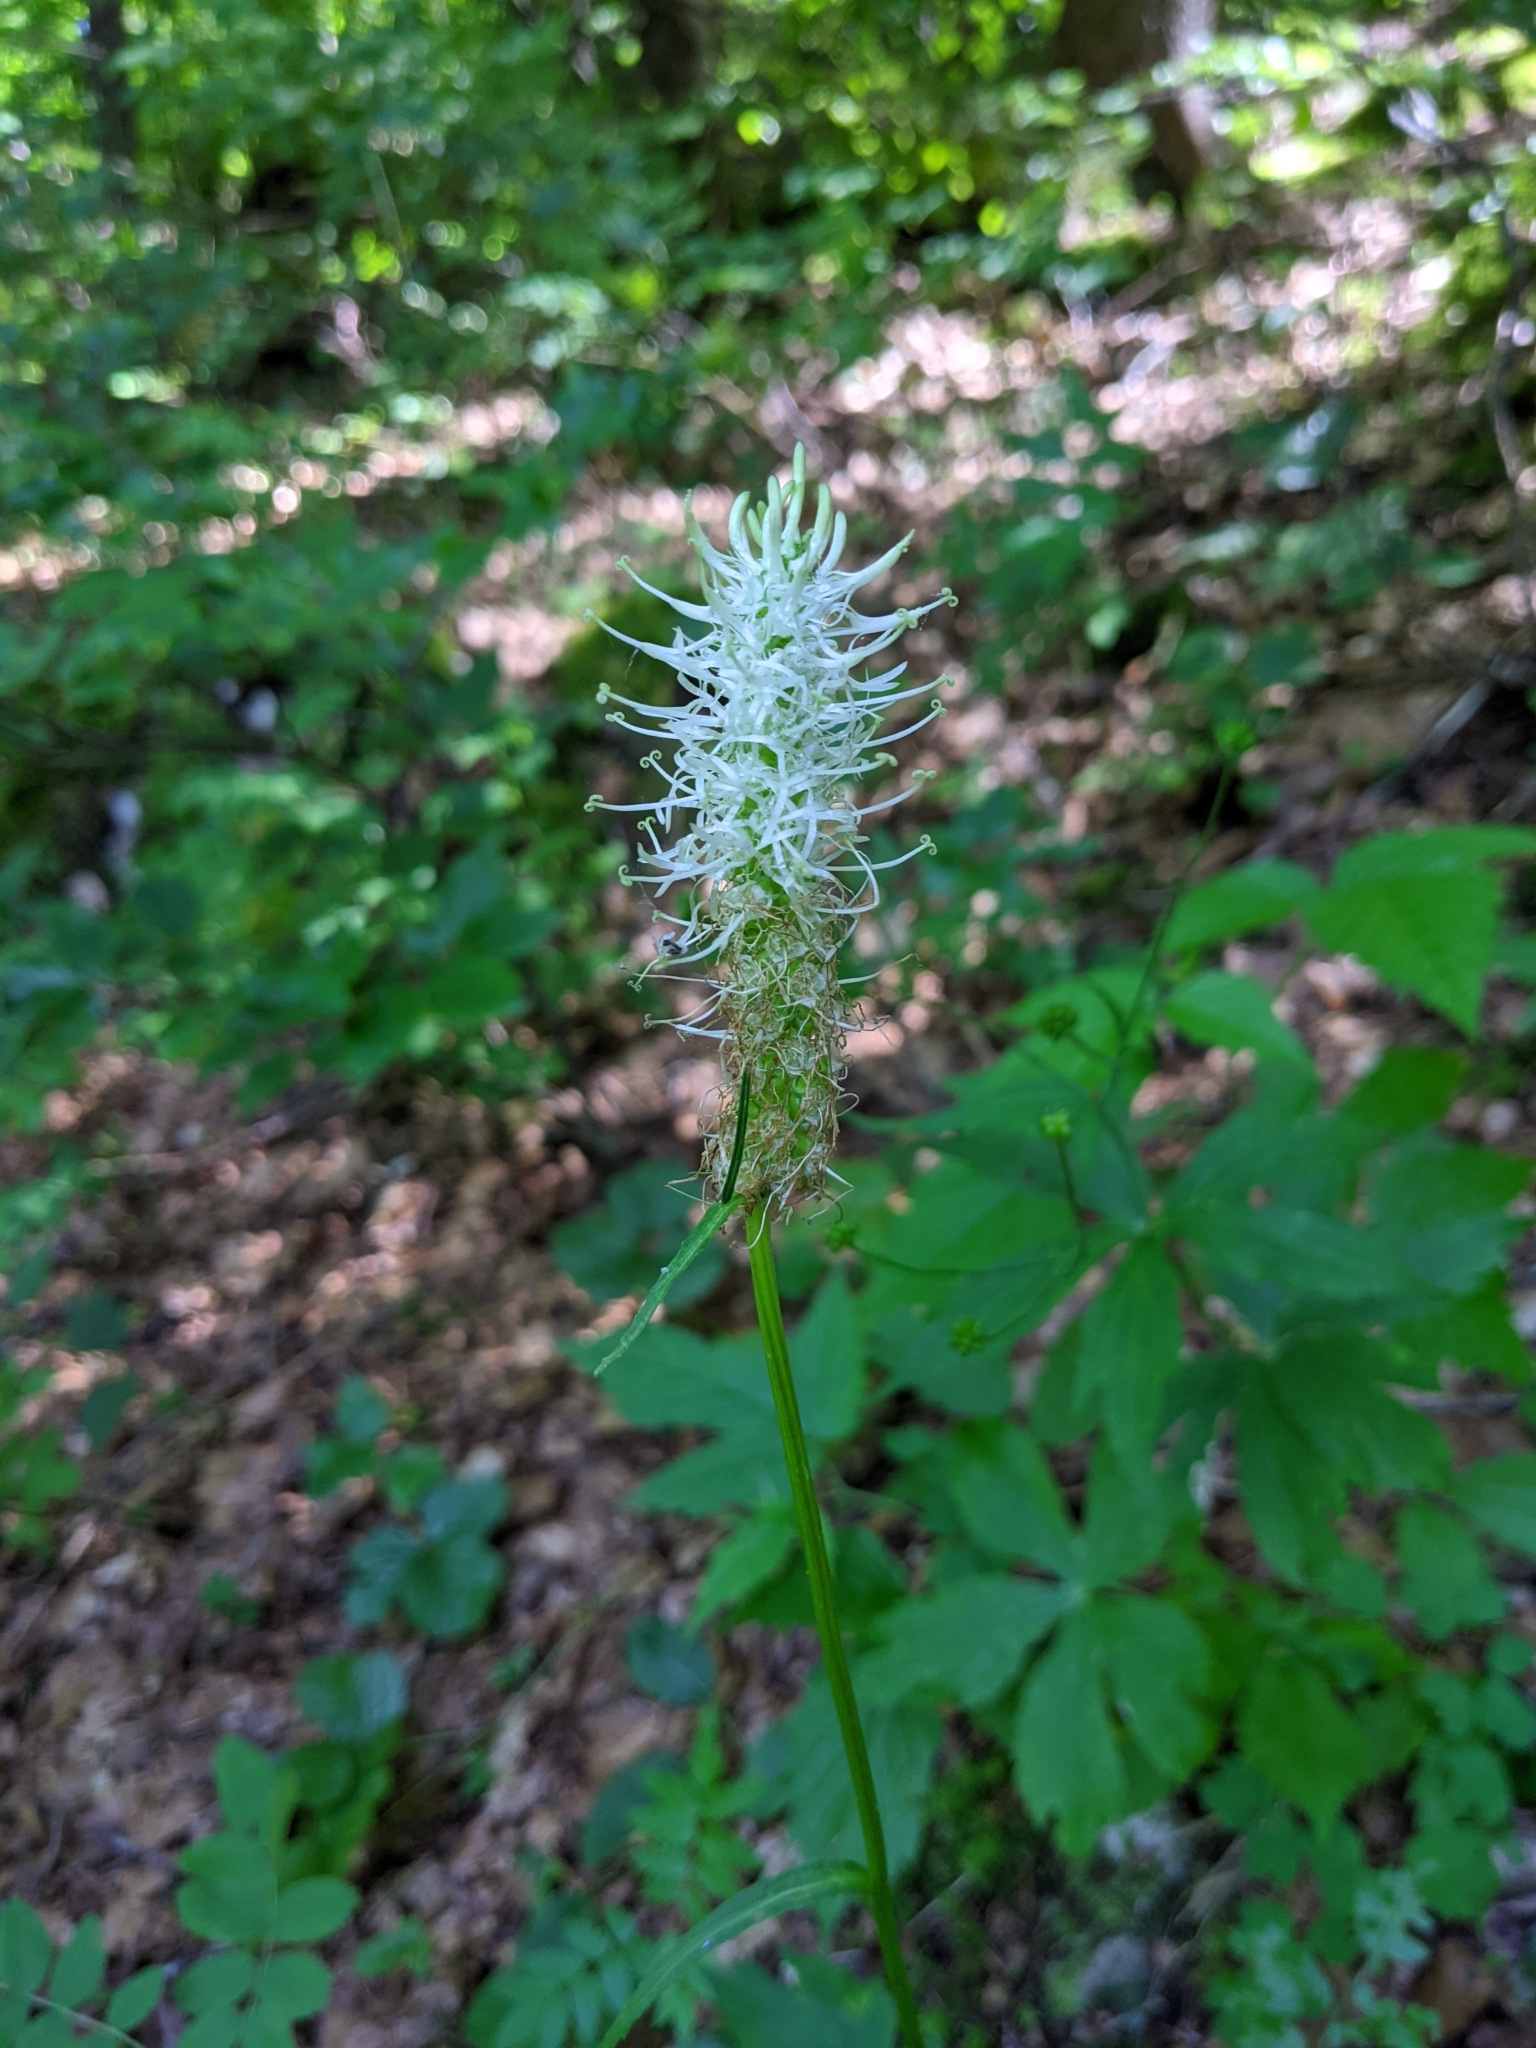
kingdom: Plantae
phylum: Tracheophyta
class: Magnoliopsida
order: Asterales
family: Campanulaceae
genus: Phyteuma
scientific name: Phyteuma spicatum
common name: Spiked rampion
